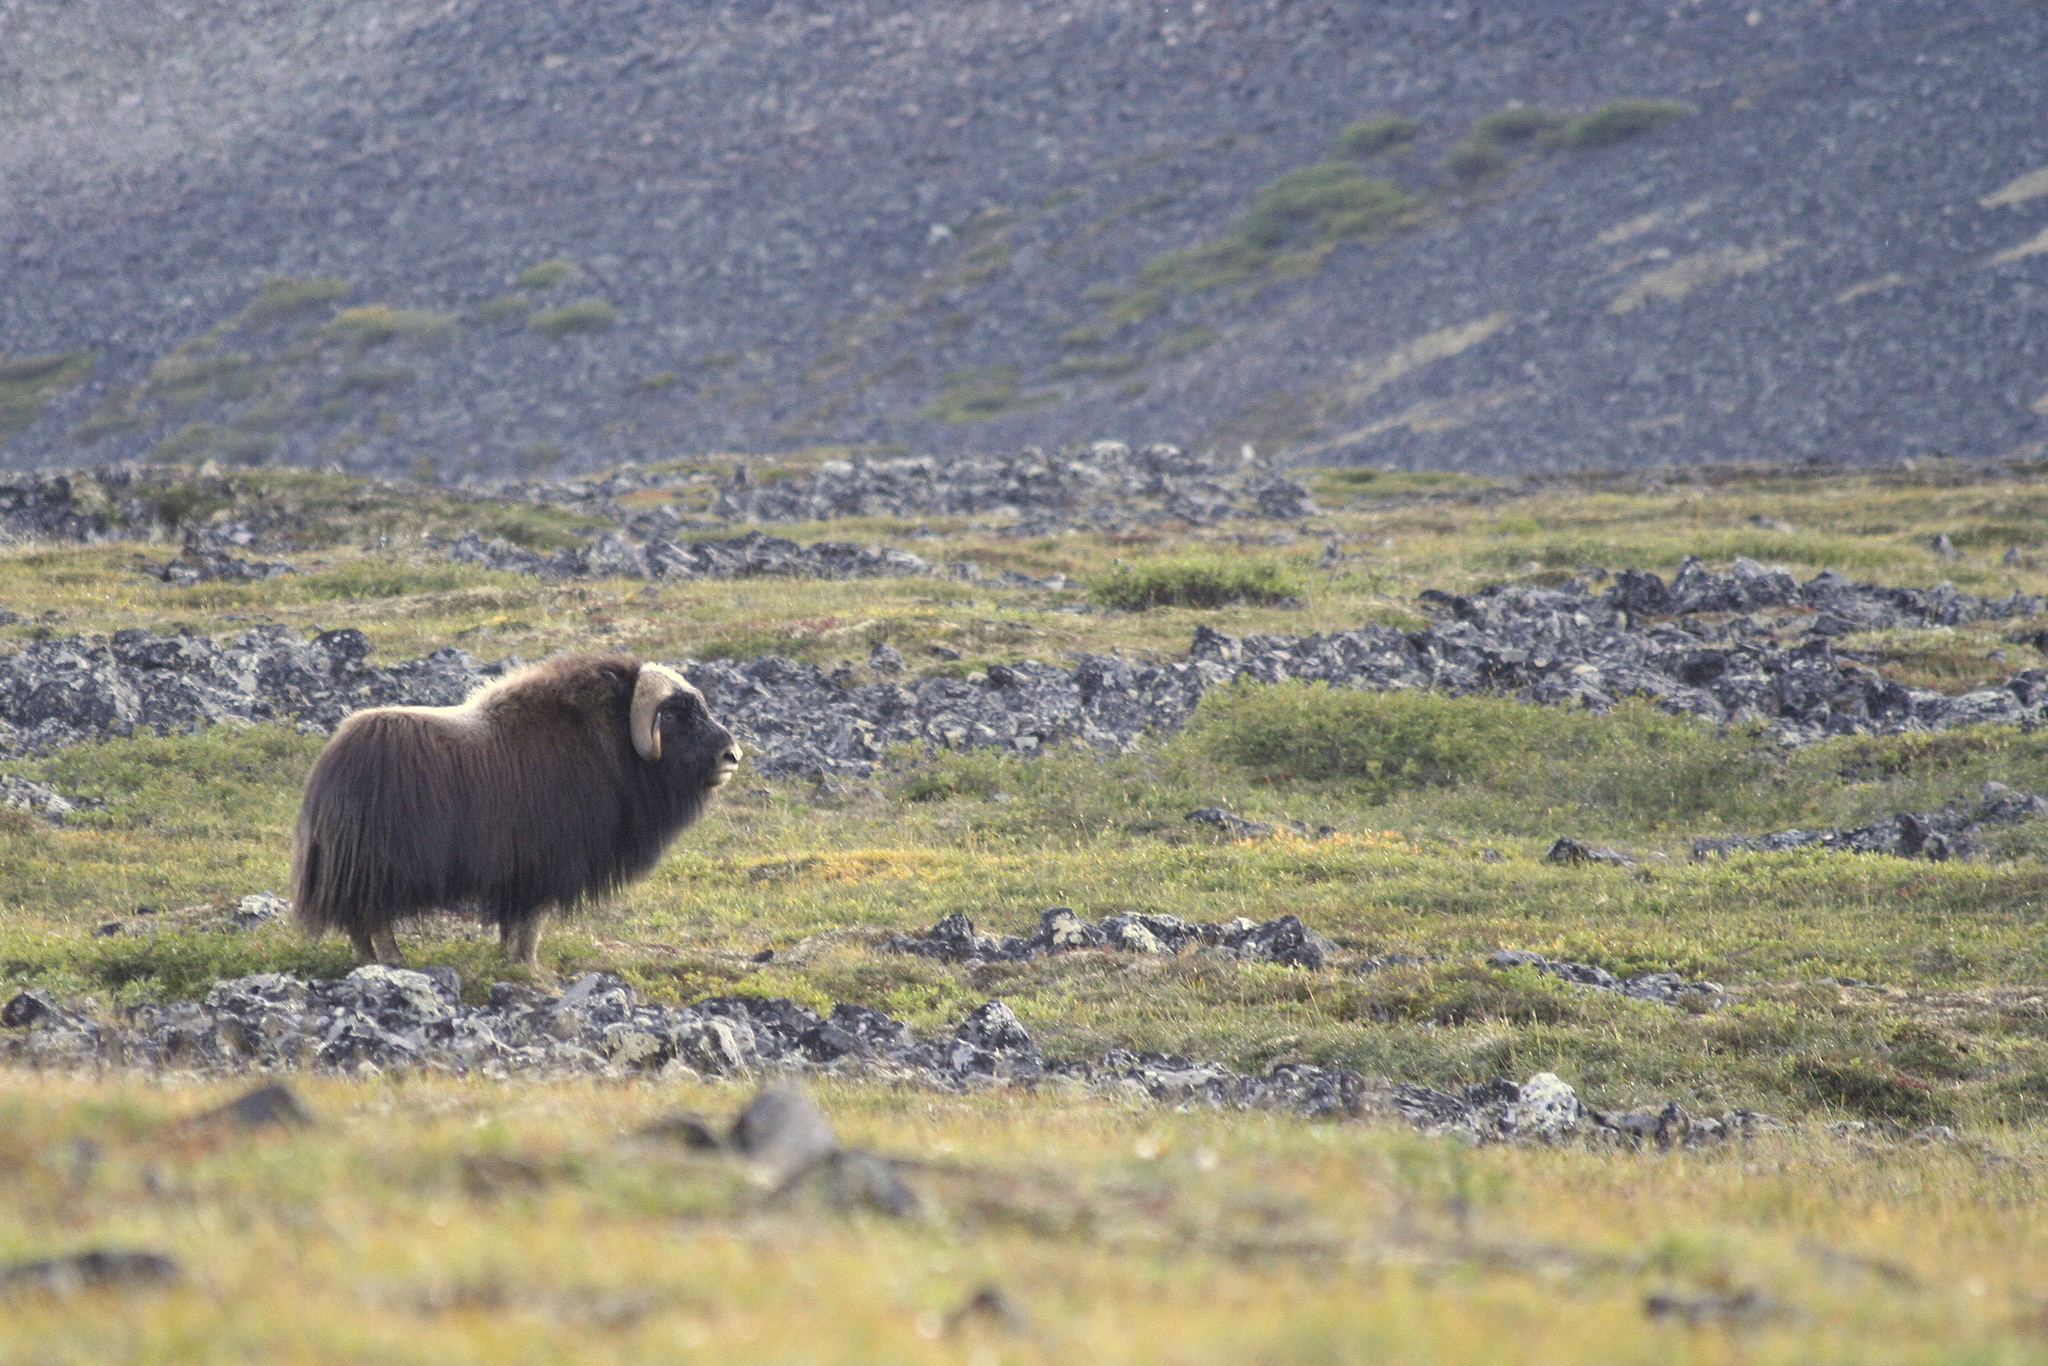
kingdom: Animalia
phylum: Chordata
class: Mammalia
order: Artiodactyla
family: Bovidae
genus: Ovibos
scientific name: Ovibos moschatus
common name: Muskox
